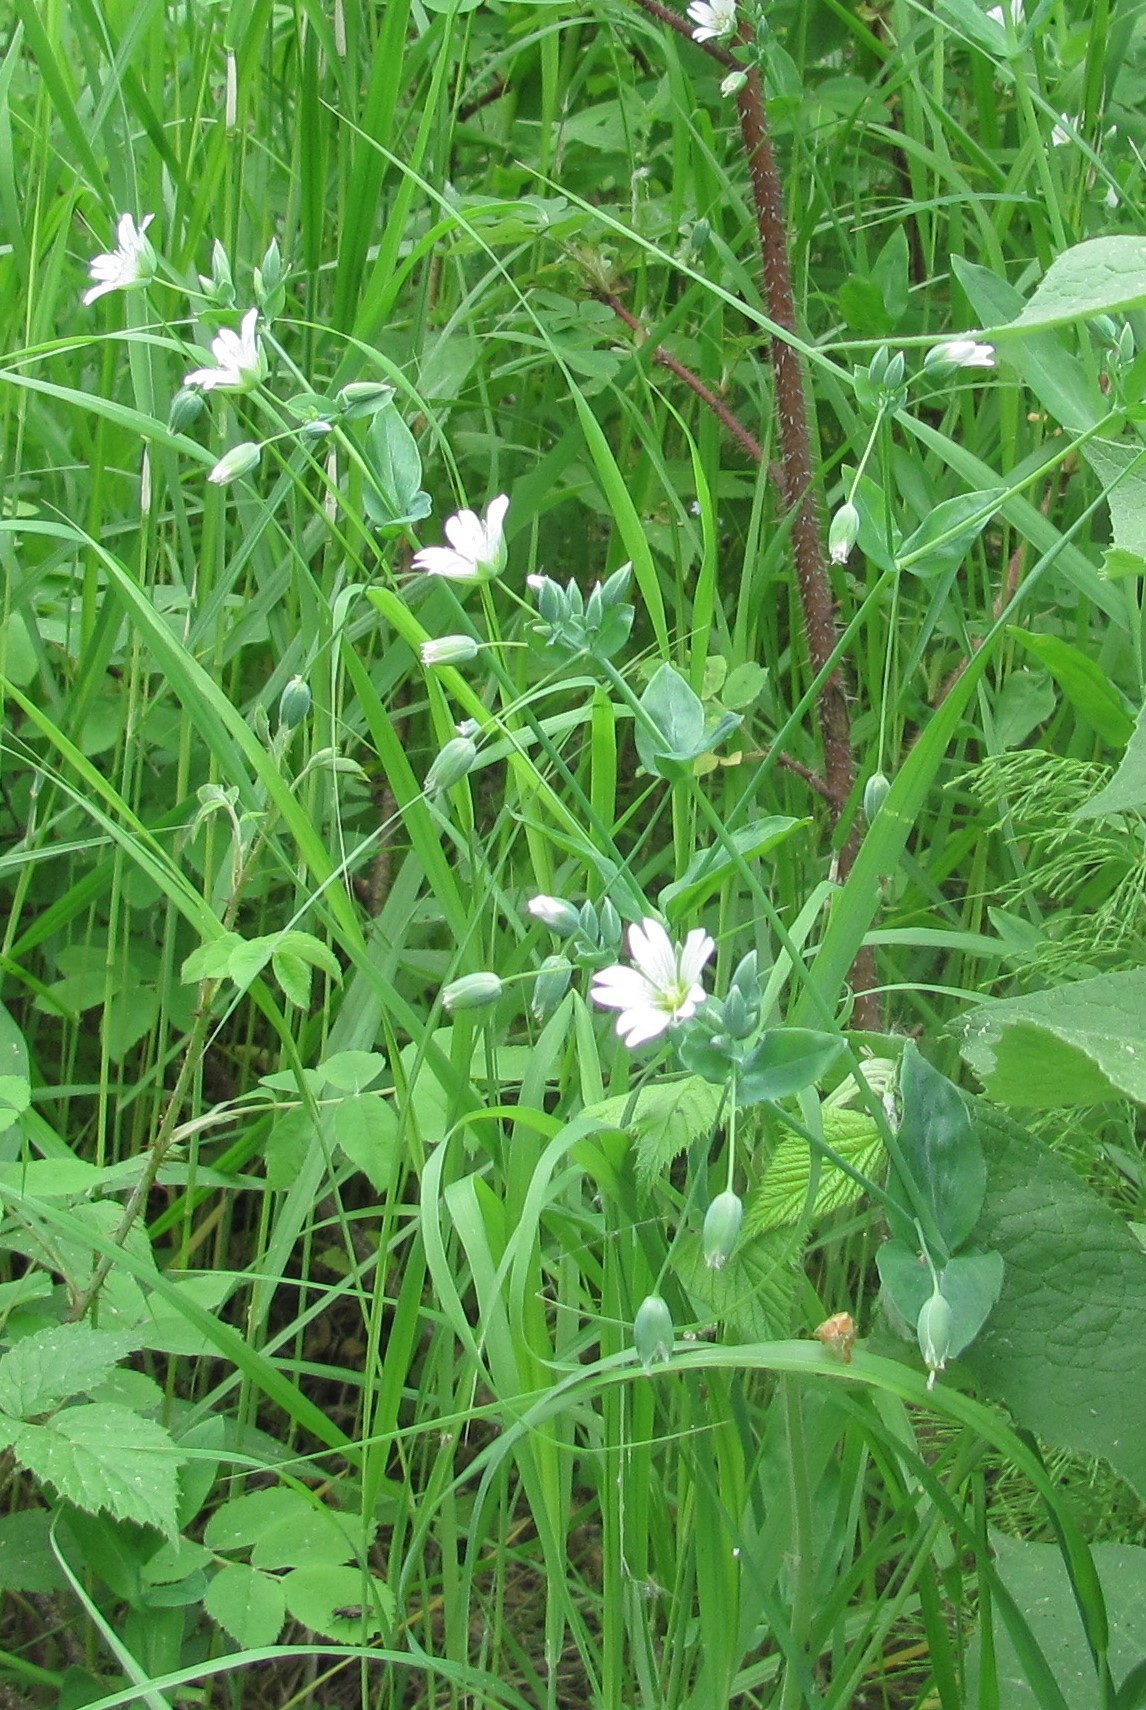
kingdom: Plantae
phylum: Tracheophyta
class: Magnoliopsida
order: Caryophyllales
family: Caryophyllaceae
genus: Cerastium
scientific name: Cerastium davuricum
